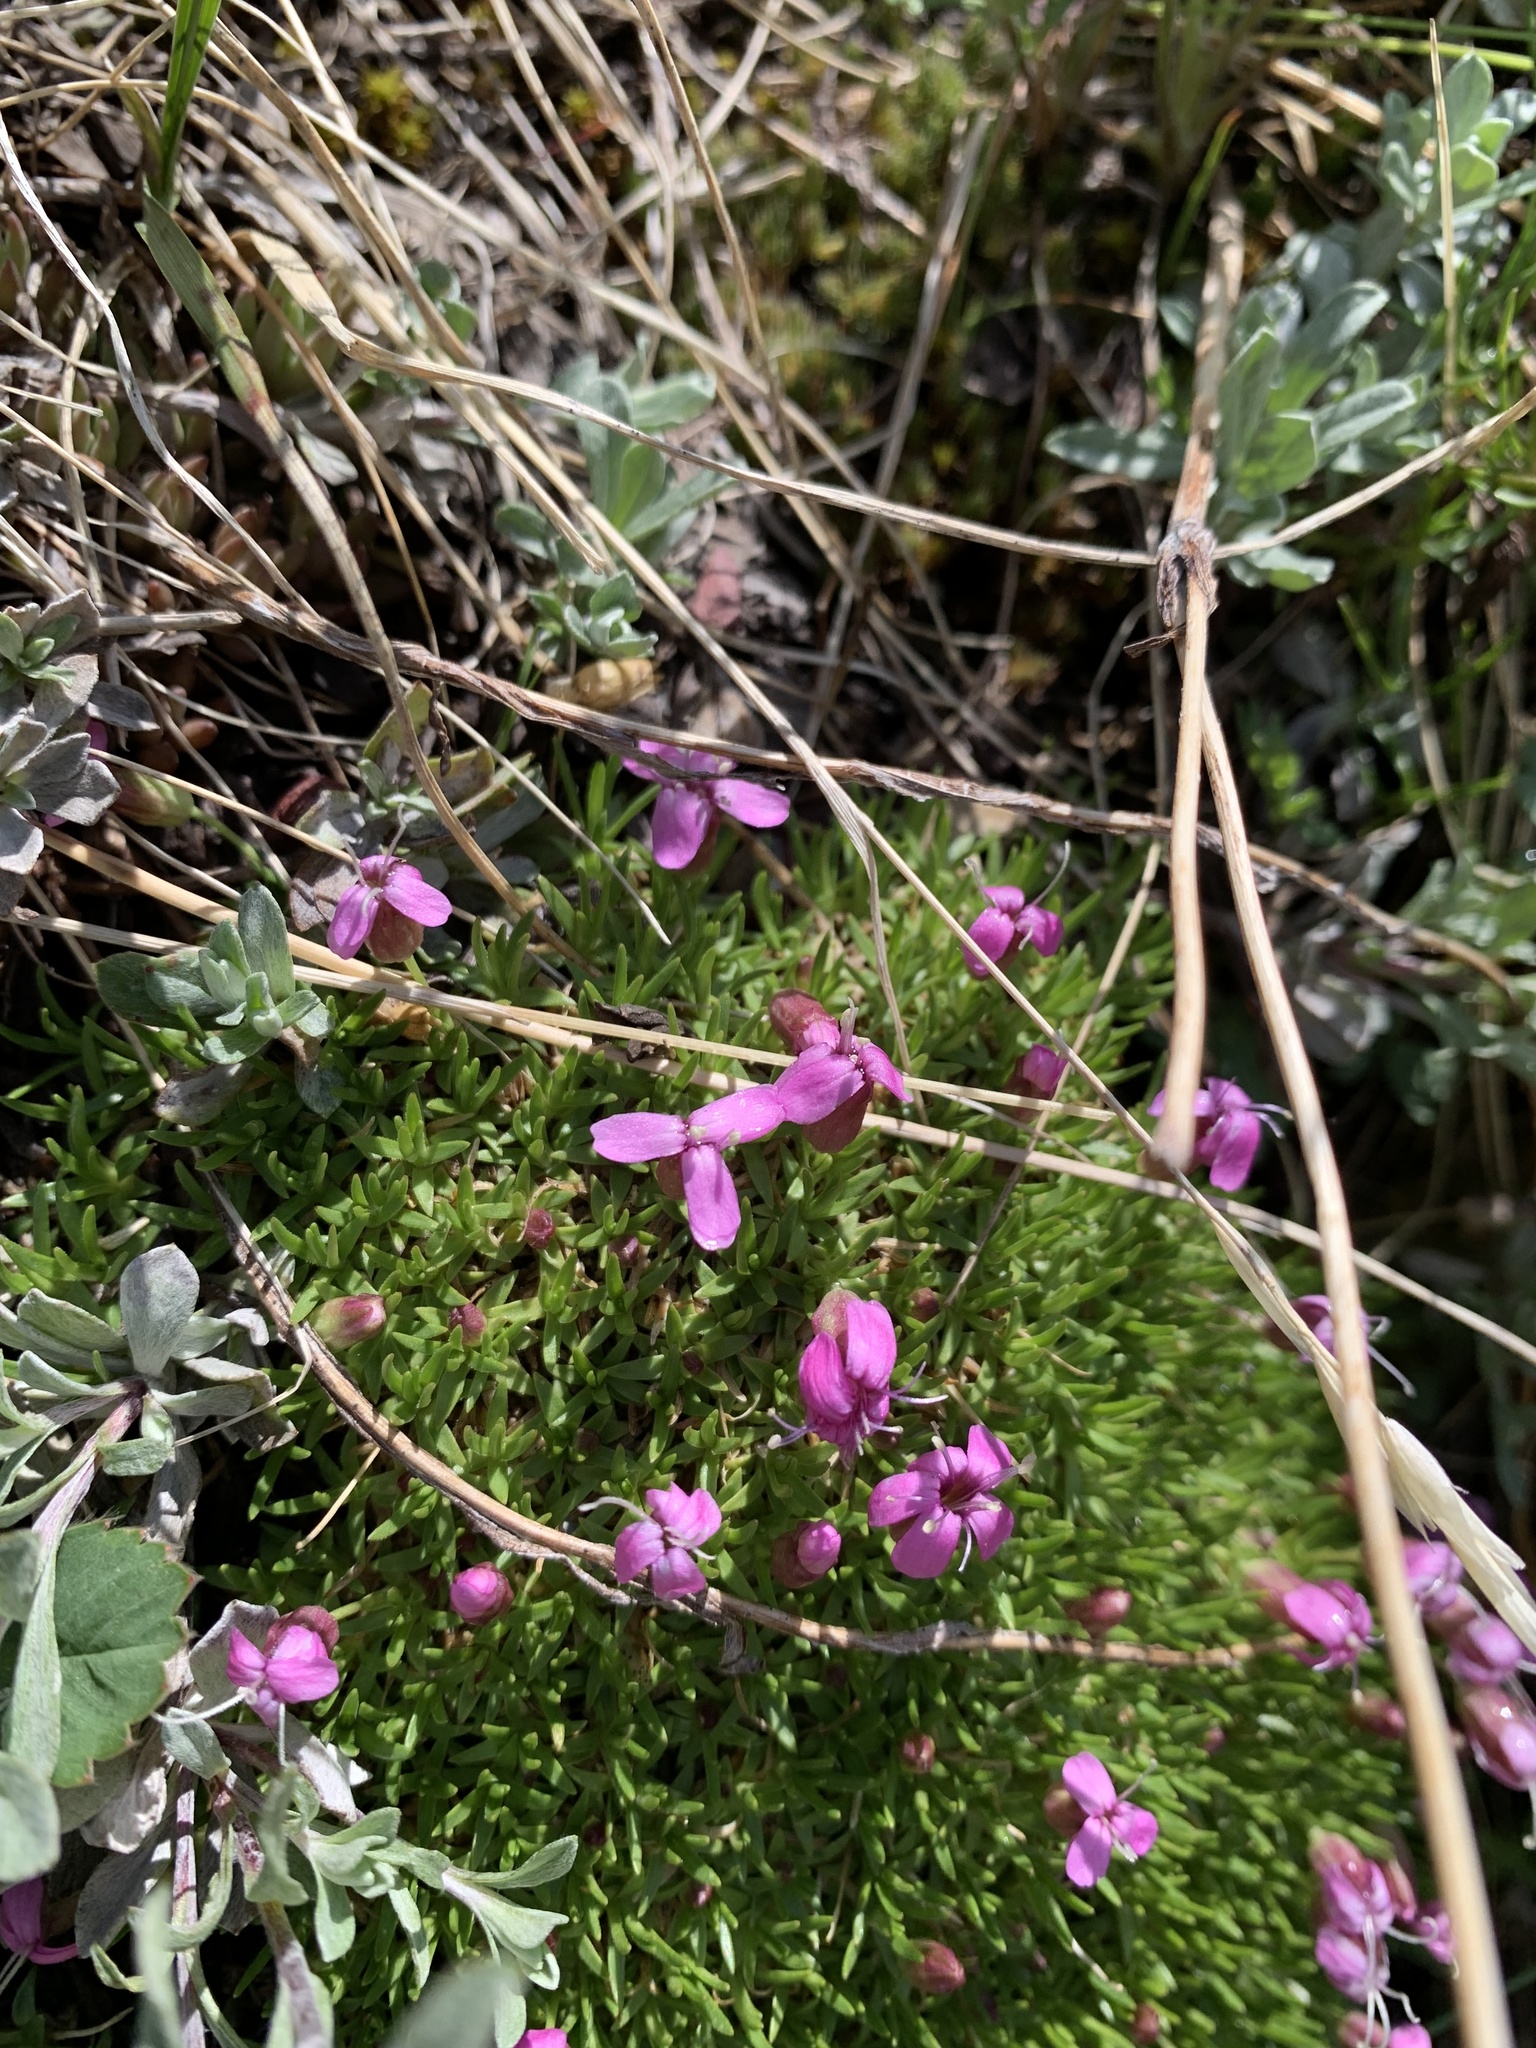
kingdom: Plantae
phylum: Tracheophyta
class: Magnoliopsida
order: Caryophyllales
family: Caryophyllaceae
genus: Silene
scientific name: Silene acaulis
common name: Moss campion
